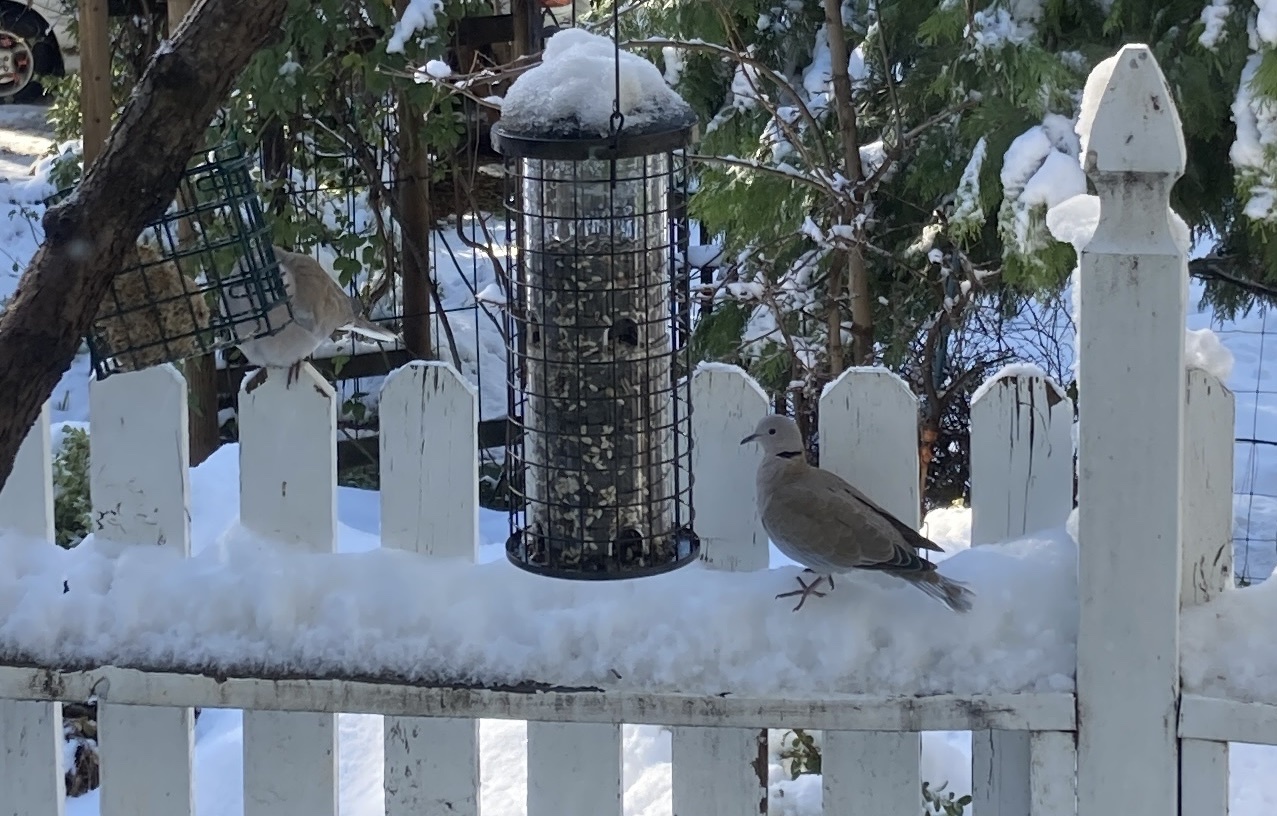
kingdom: Animalia
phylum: Chordata
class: Aves
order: Columbiformes
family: Columbidae
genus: Streptopelia
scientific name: Streptopelia decaocto
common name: Eurasian collared dove
